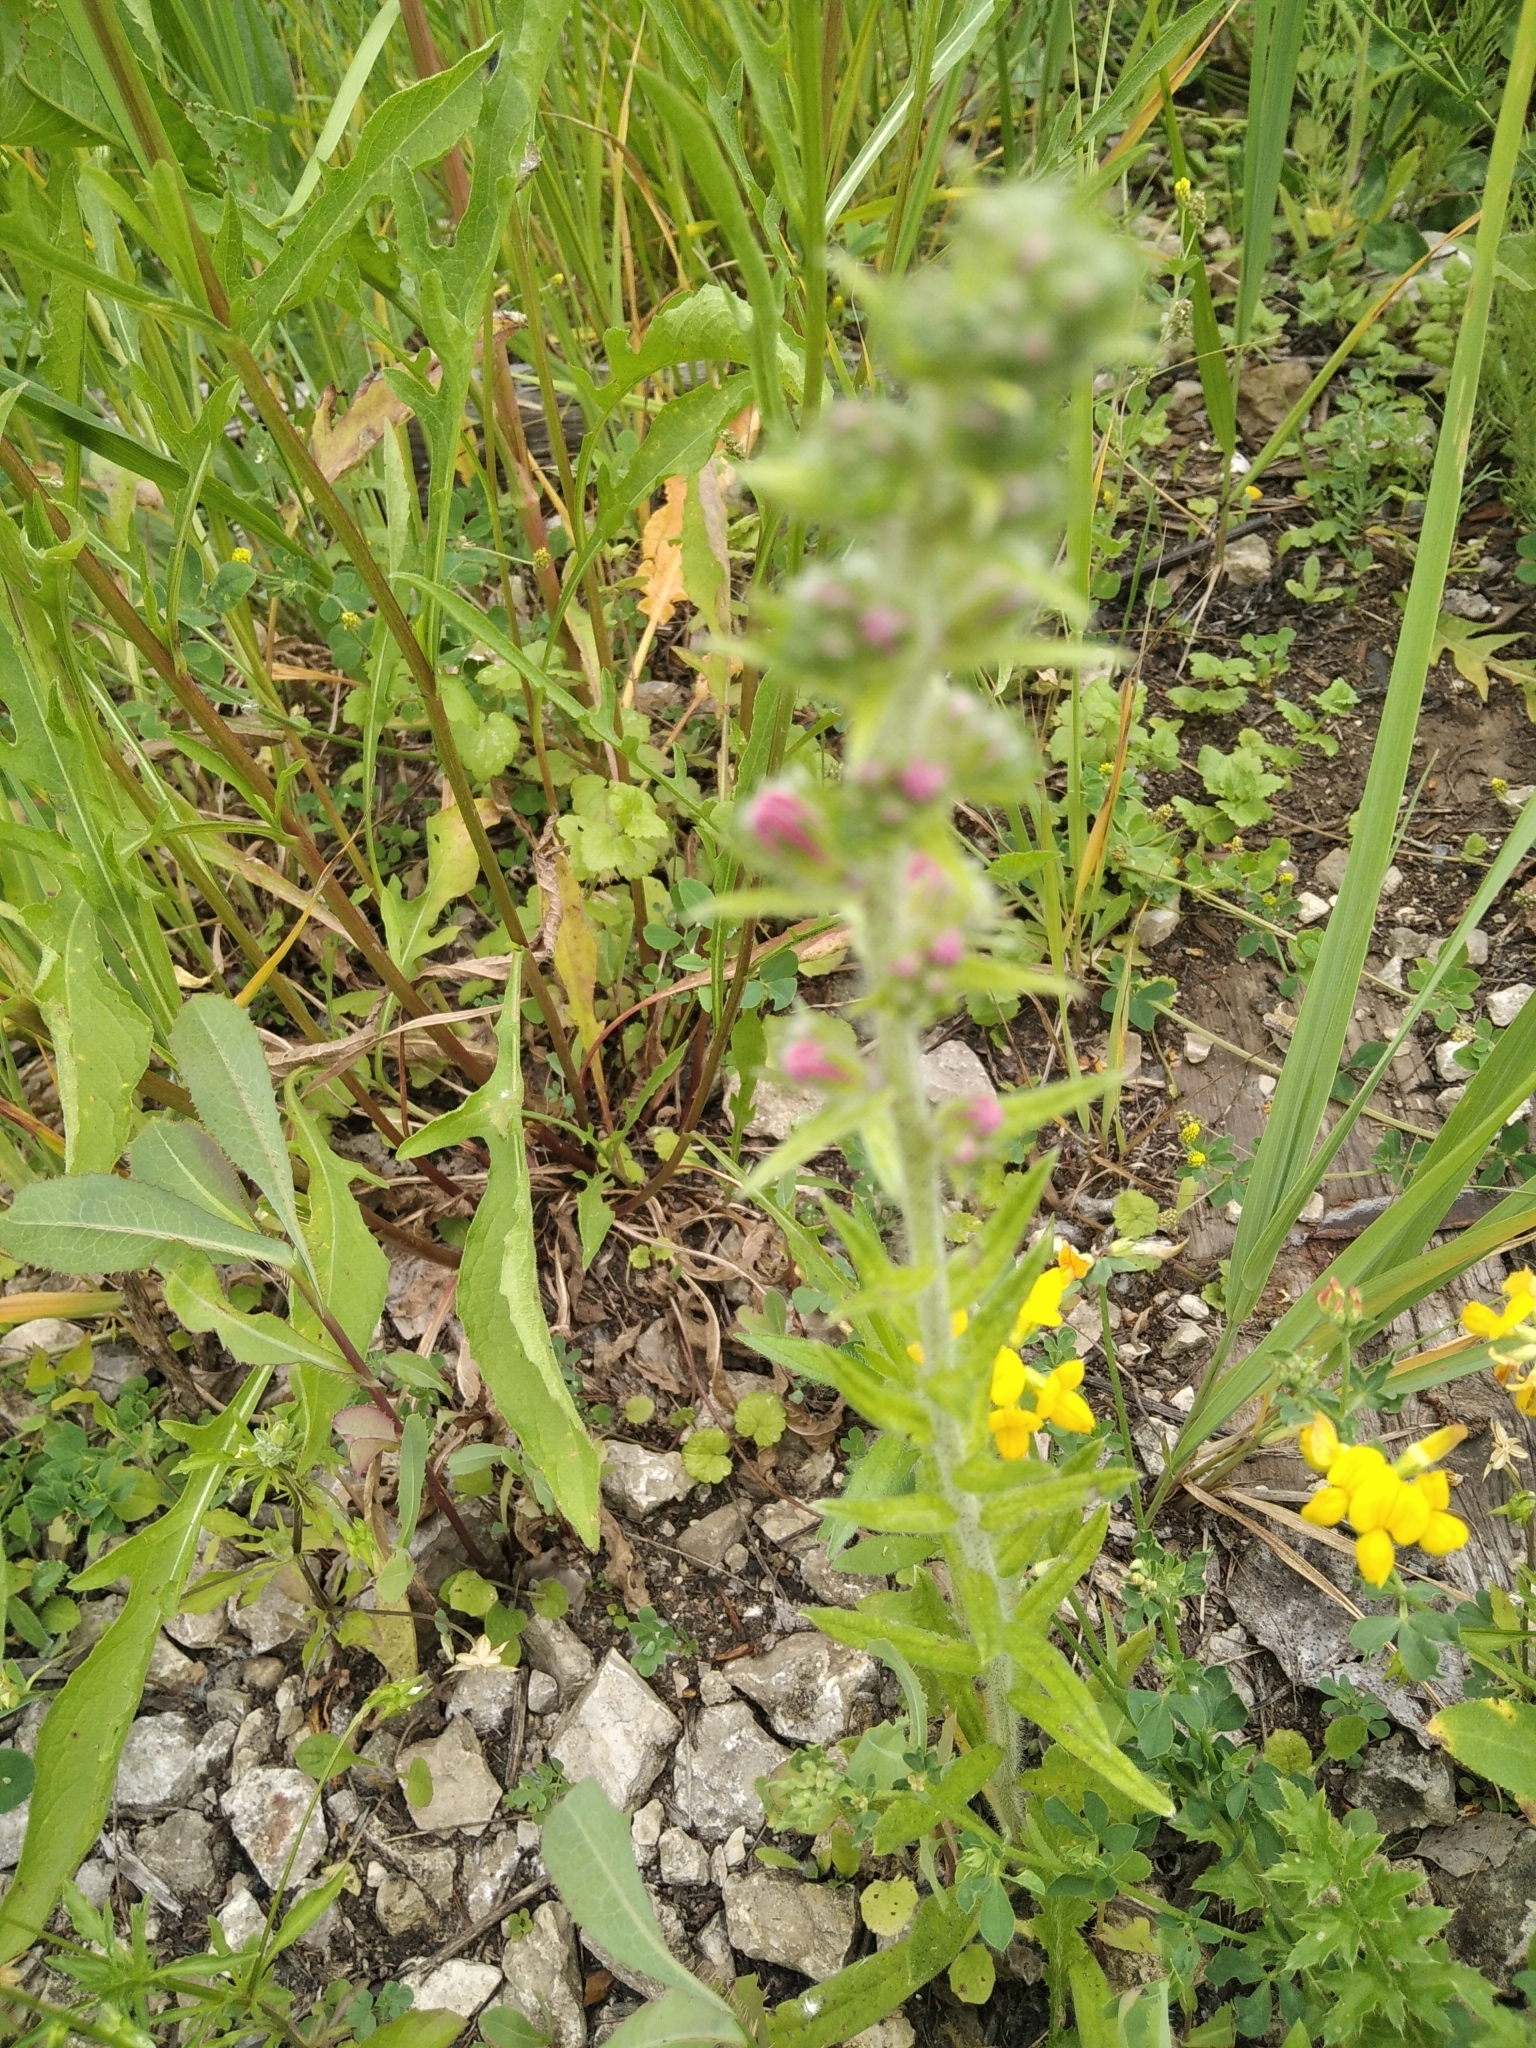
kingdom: Plantae
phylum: Tracheophyta
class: Magnoliopsida
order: Boraginales
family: Boraginaceae
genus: Echium
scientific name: Echium vulgare
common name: Common viper's bugloss
